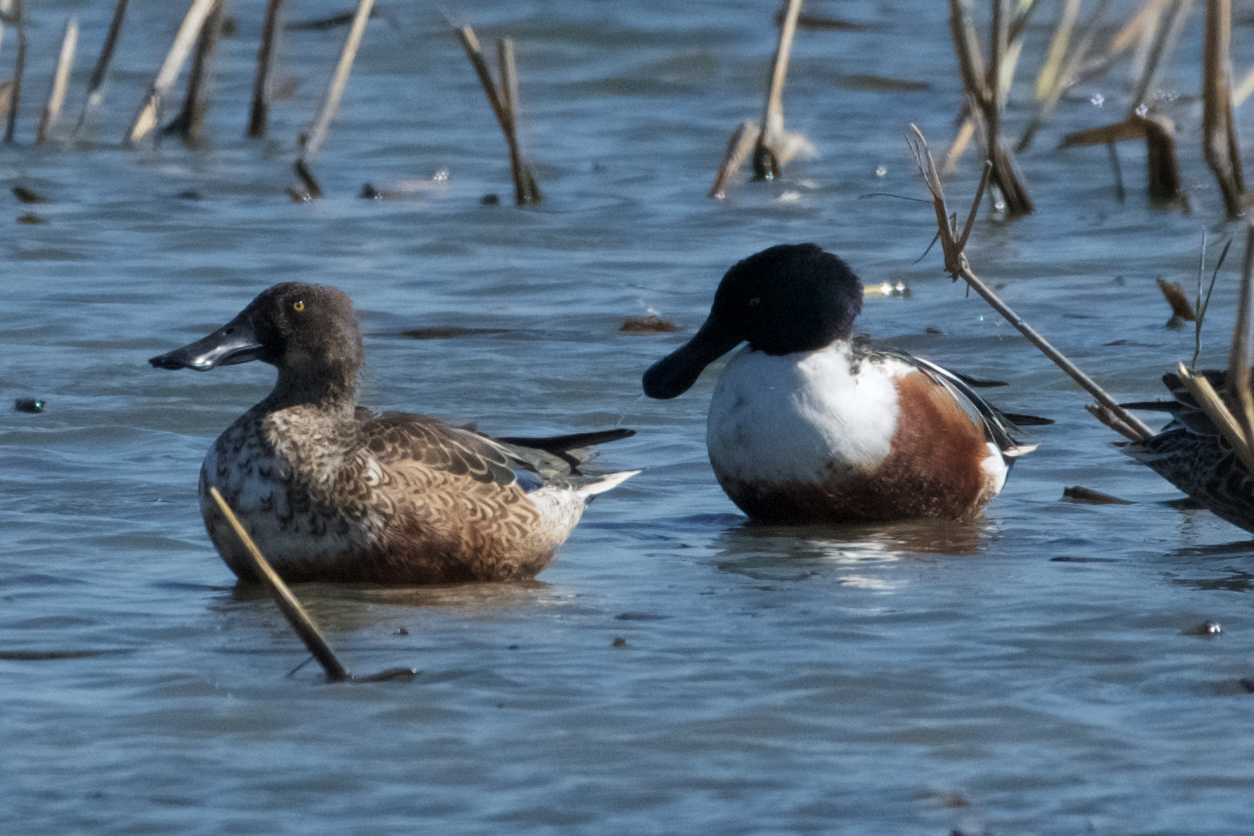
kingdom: Animalia
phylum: Chordata
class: Aves
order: Anseriformes
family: Anatidae
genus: Spatula
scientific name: Spatula clypeata
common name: Northern shoveler
